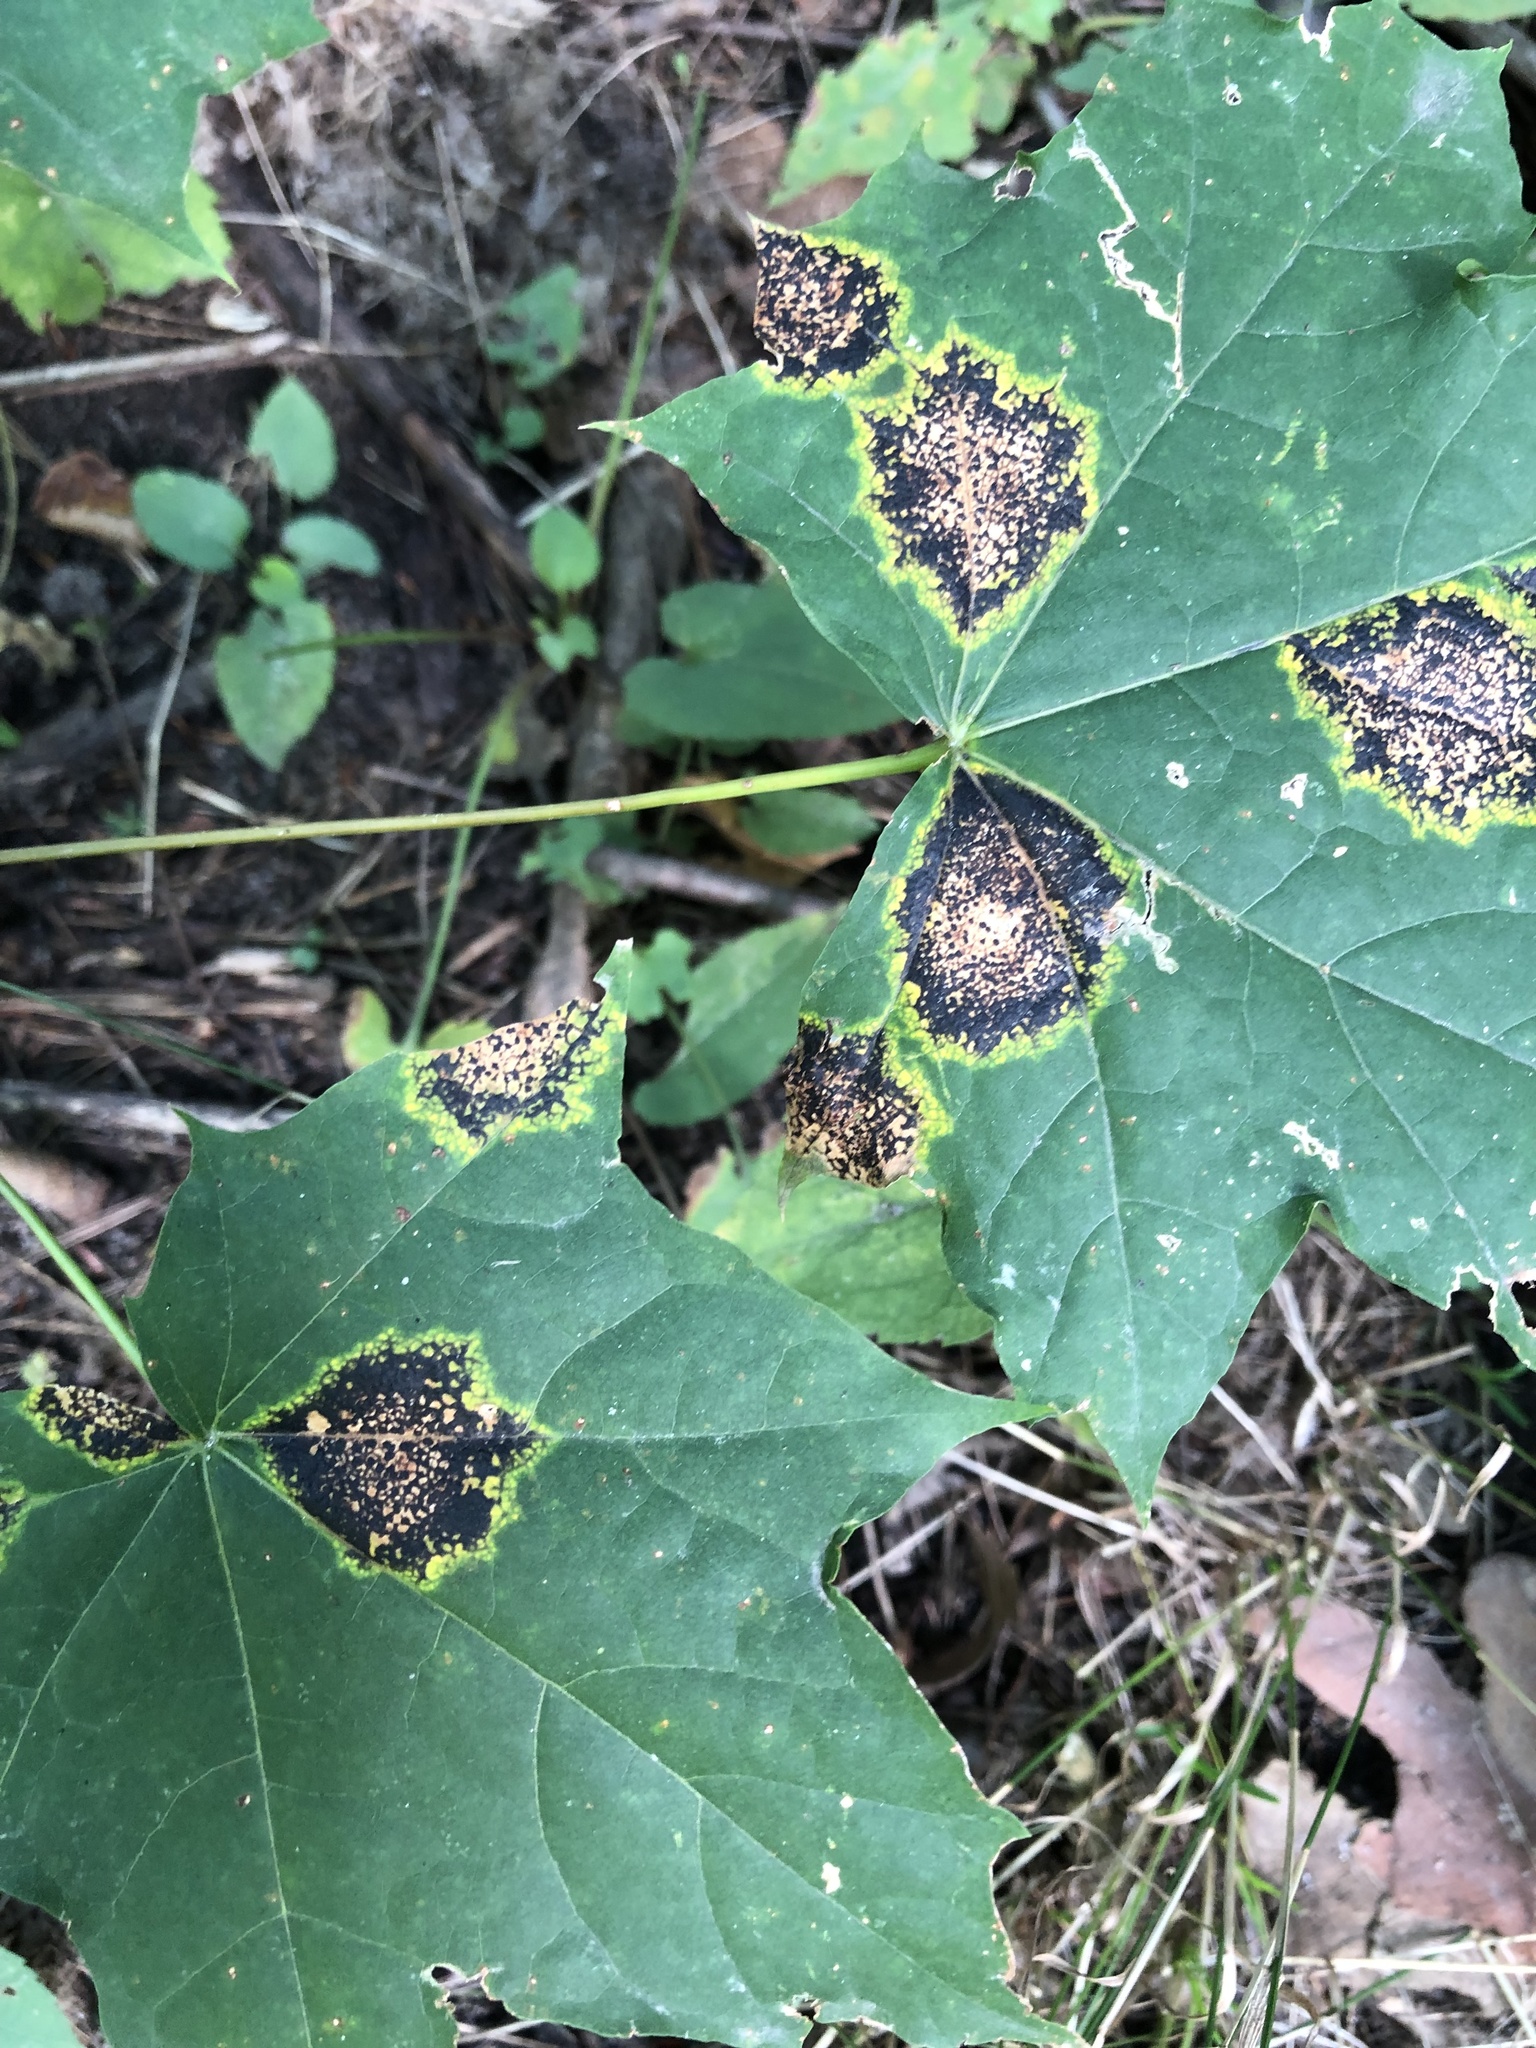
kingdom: Fungi
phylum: Ascomycota
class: Leotiomycetes
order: Rhytismatales
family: Rhytismataceae
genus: Rhytisma
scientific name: Rhytisma acerinum
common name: European tar spot
